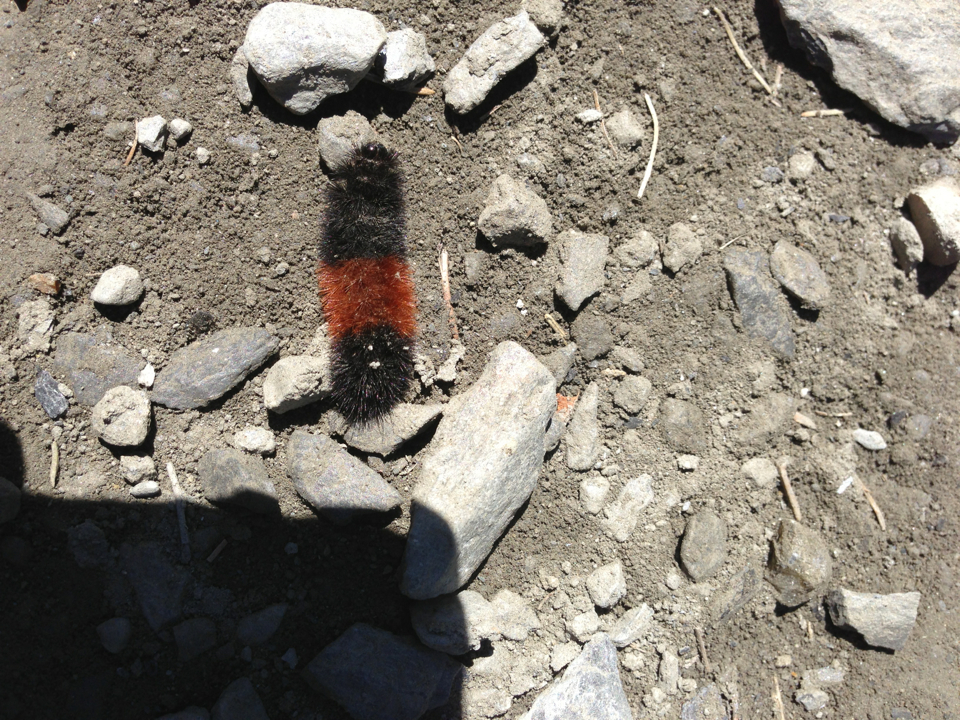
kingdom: Animalia
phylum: Arthropoda
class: Insecta
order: Lepidoptera
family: Erebidae
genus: Pyrrharctia
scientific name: Pyrrharctia isabella
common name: Isabella tiger moth
